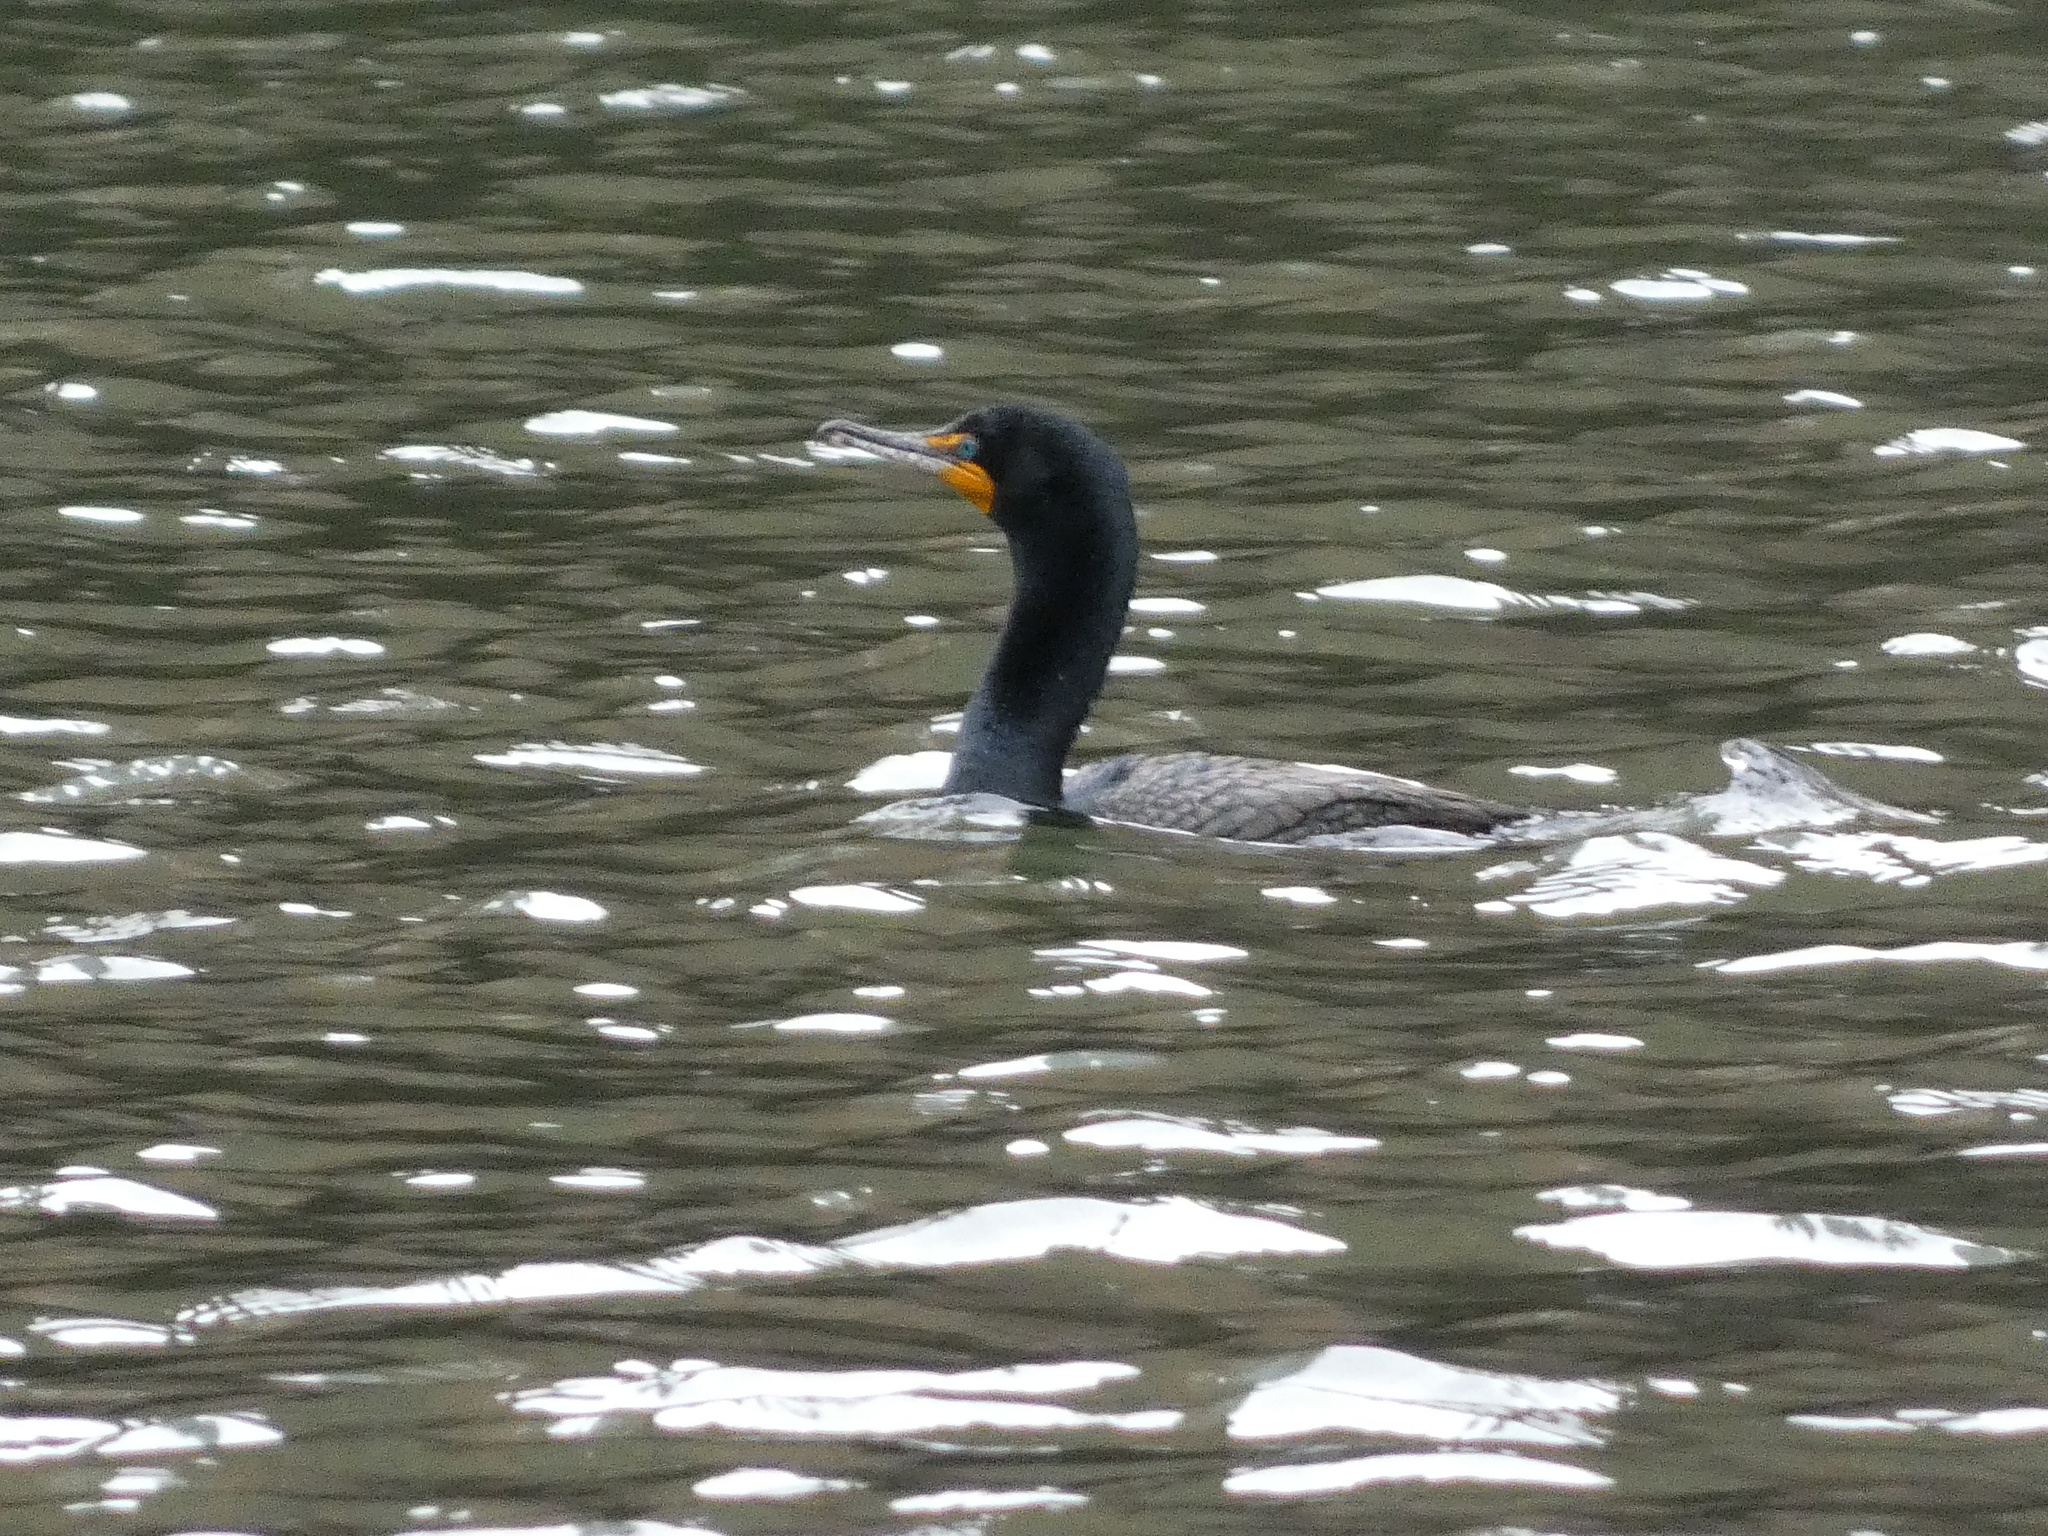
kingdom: Animalia
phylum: Chordata
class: Aves
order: Suliformes
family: Phalacrocoracidae
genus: Phalacrocorax
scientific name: Phalacrocorax auritus
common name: Double-crested cormorant
